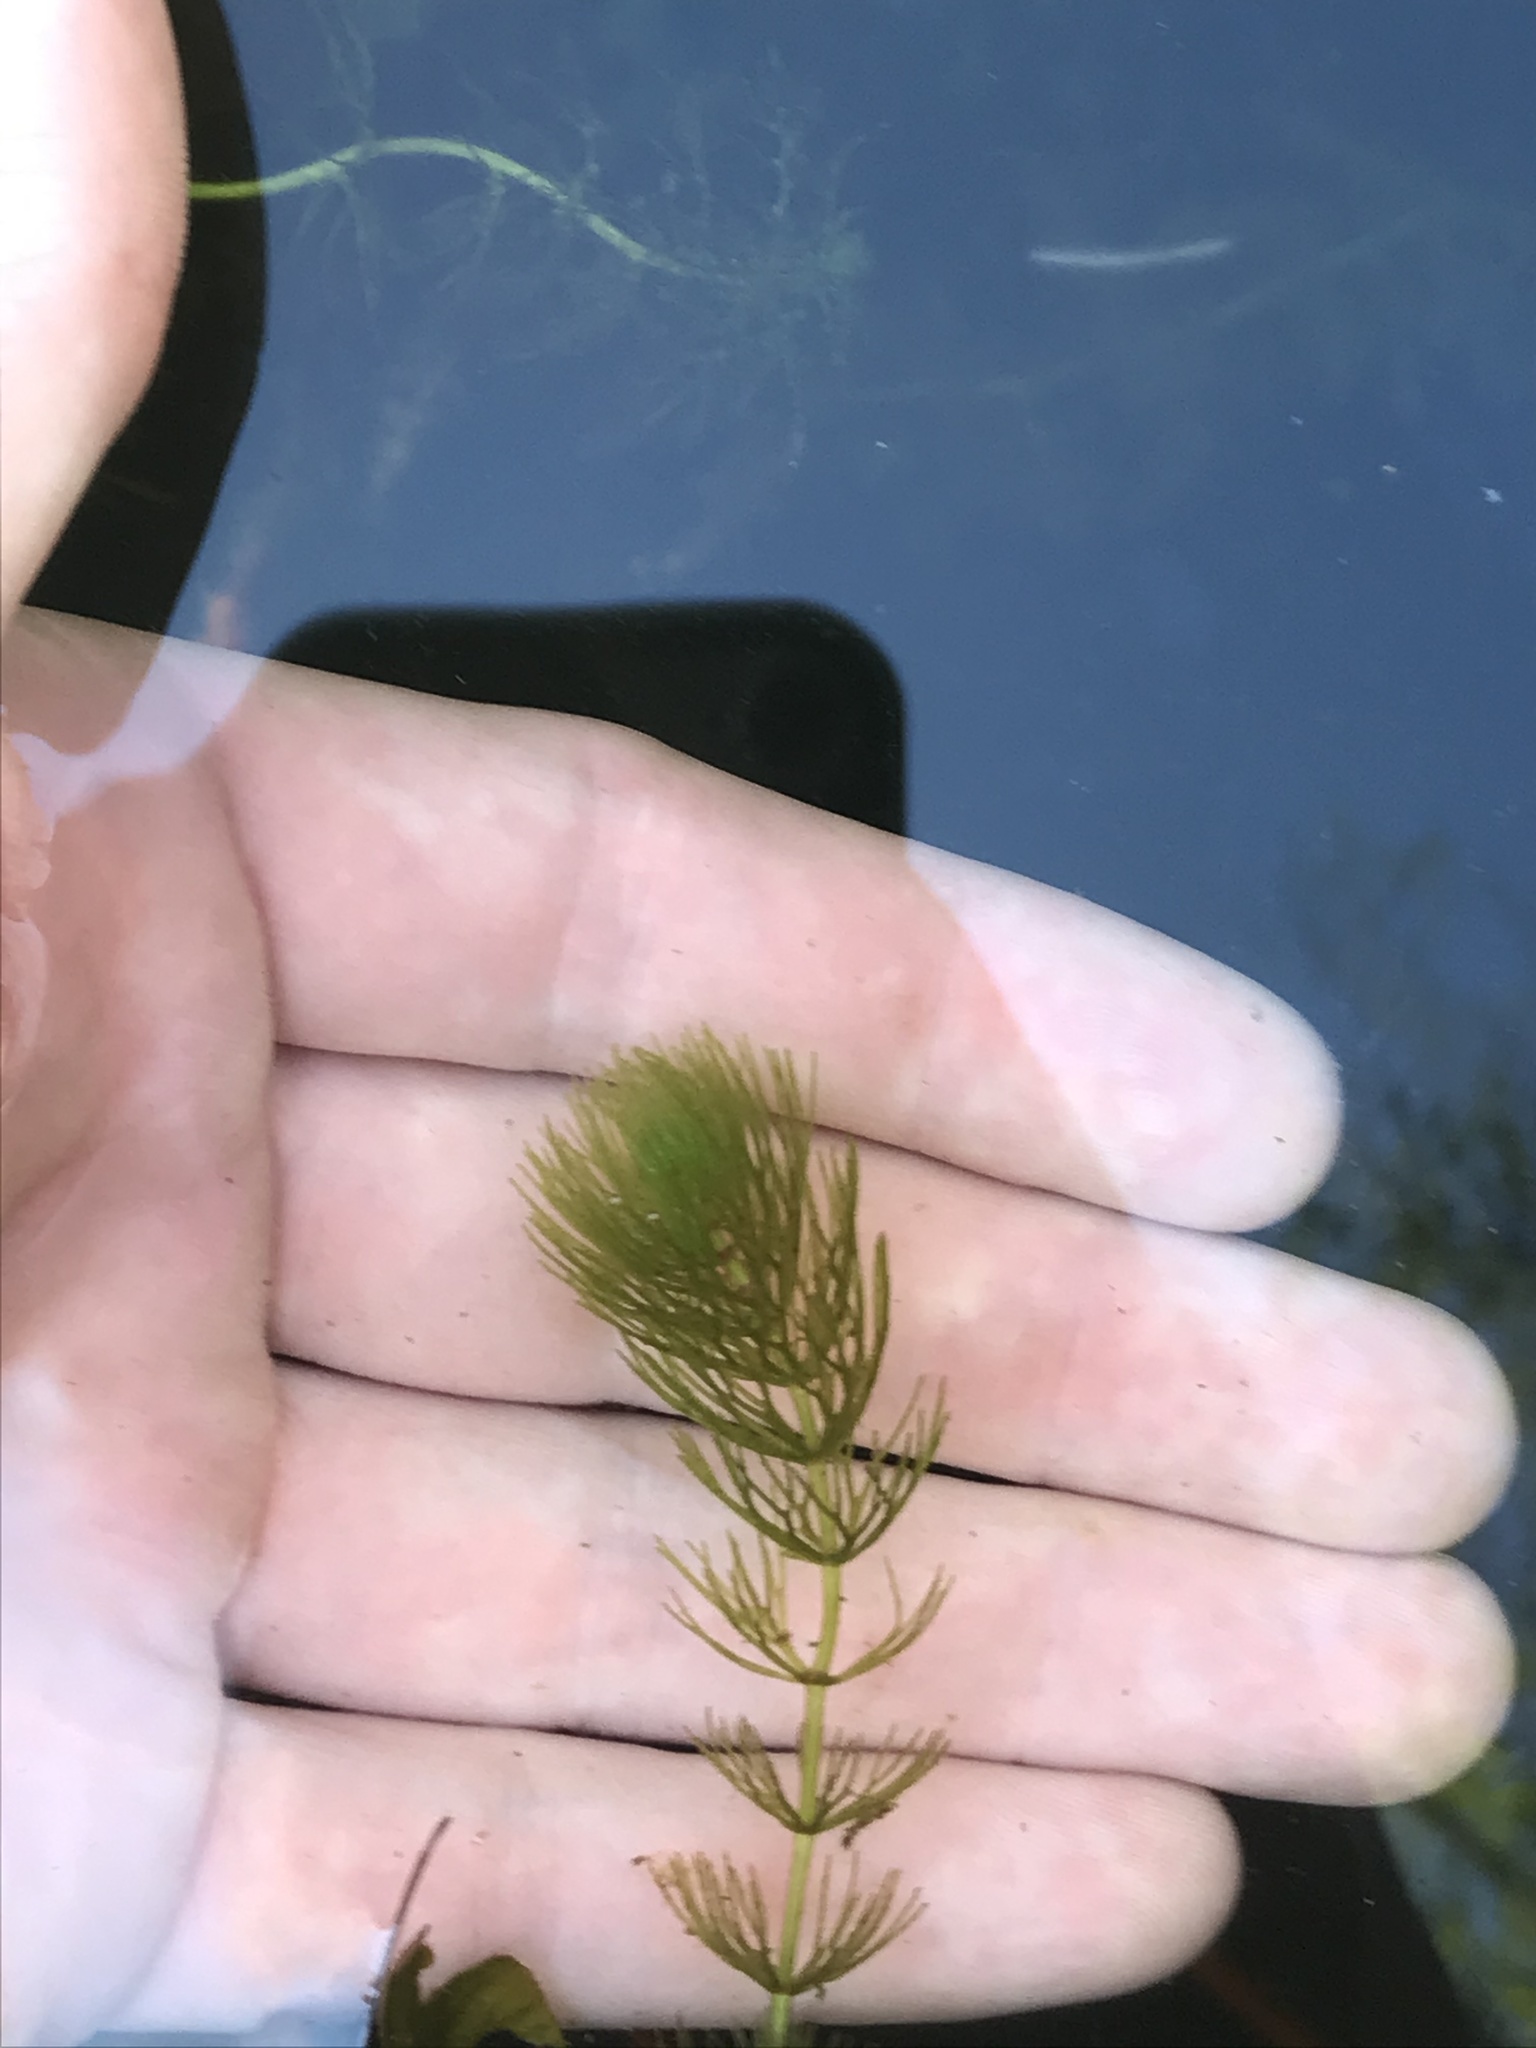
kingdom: Plantae
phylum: Tracheophyta
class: Magnoliopsida
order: Ceratophyllales
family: Ceratophyllaceae
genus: Ceratophyllum
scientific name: Ceratophyllum demersum
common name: Rigid hornwort
